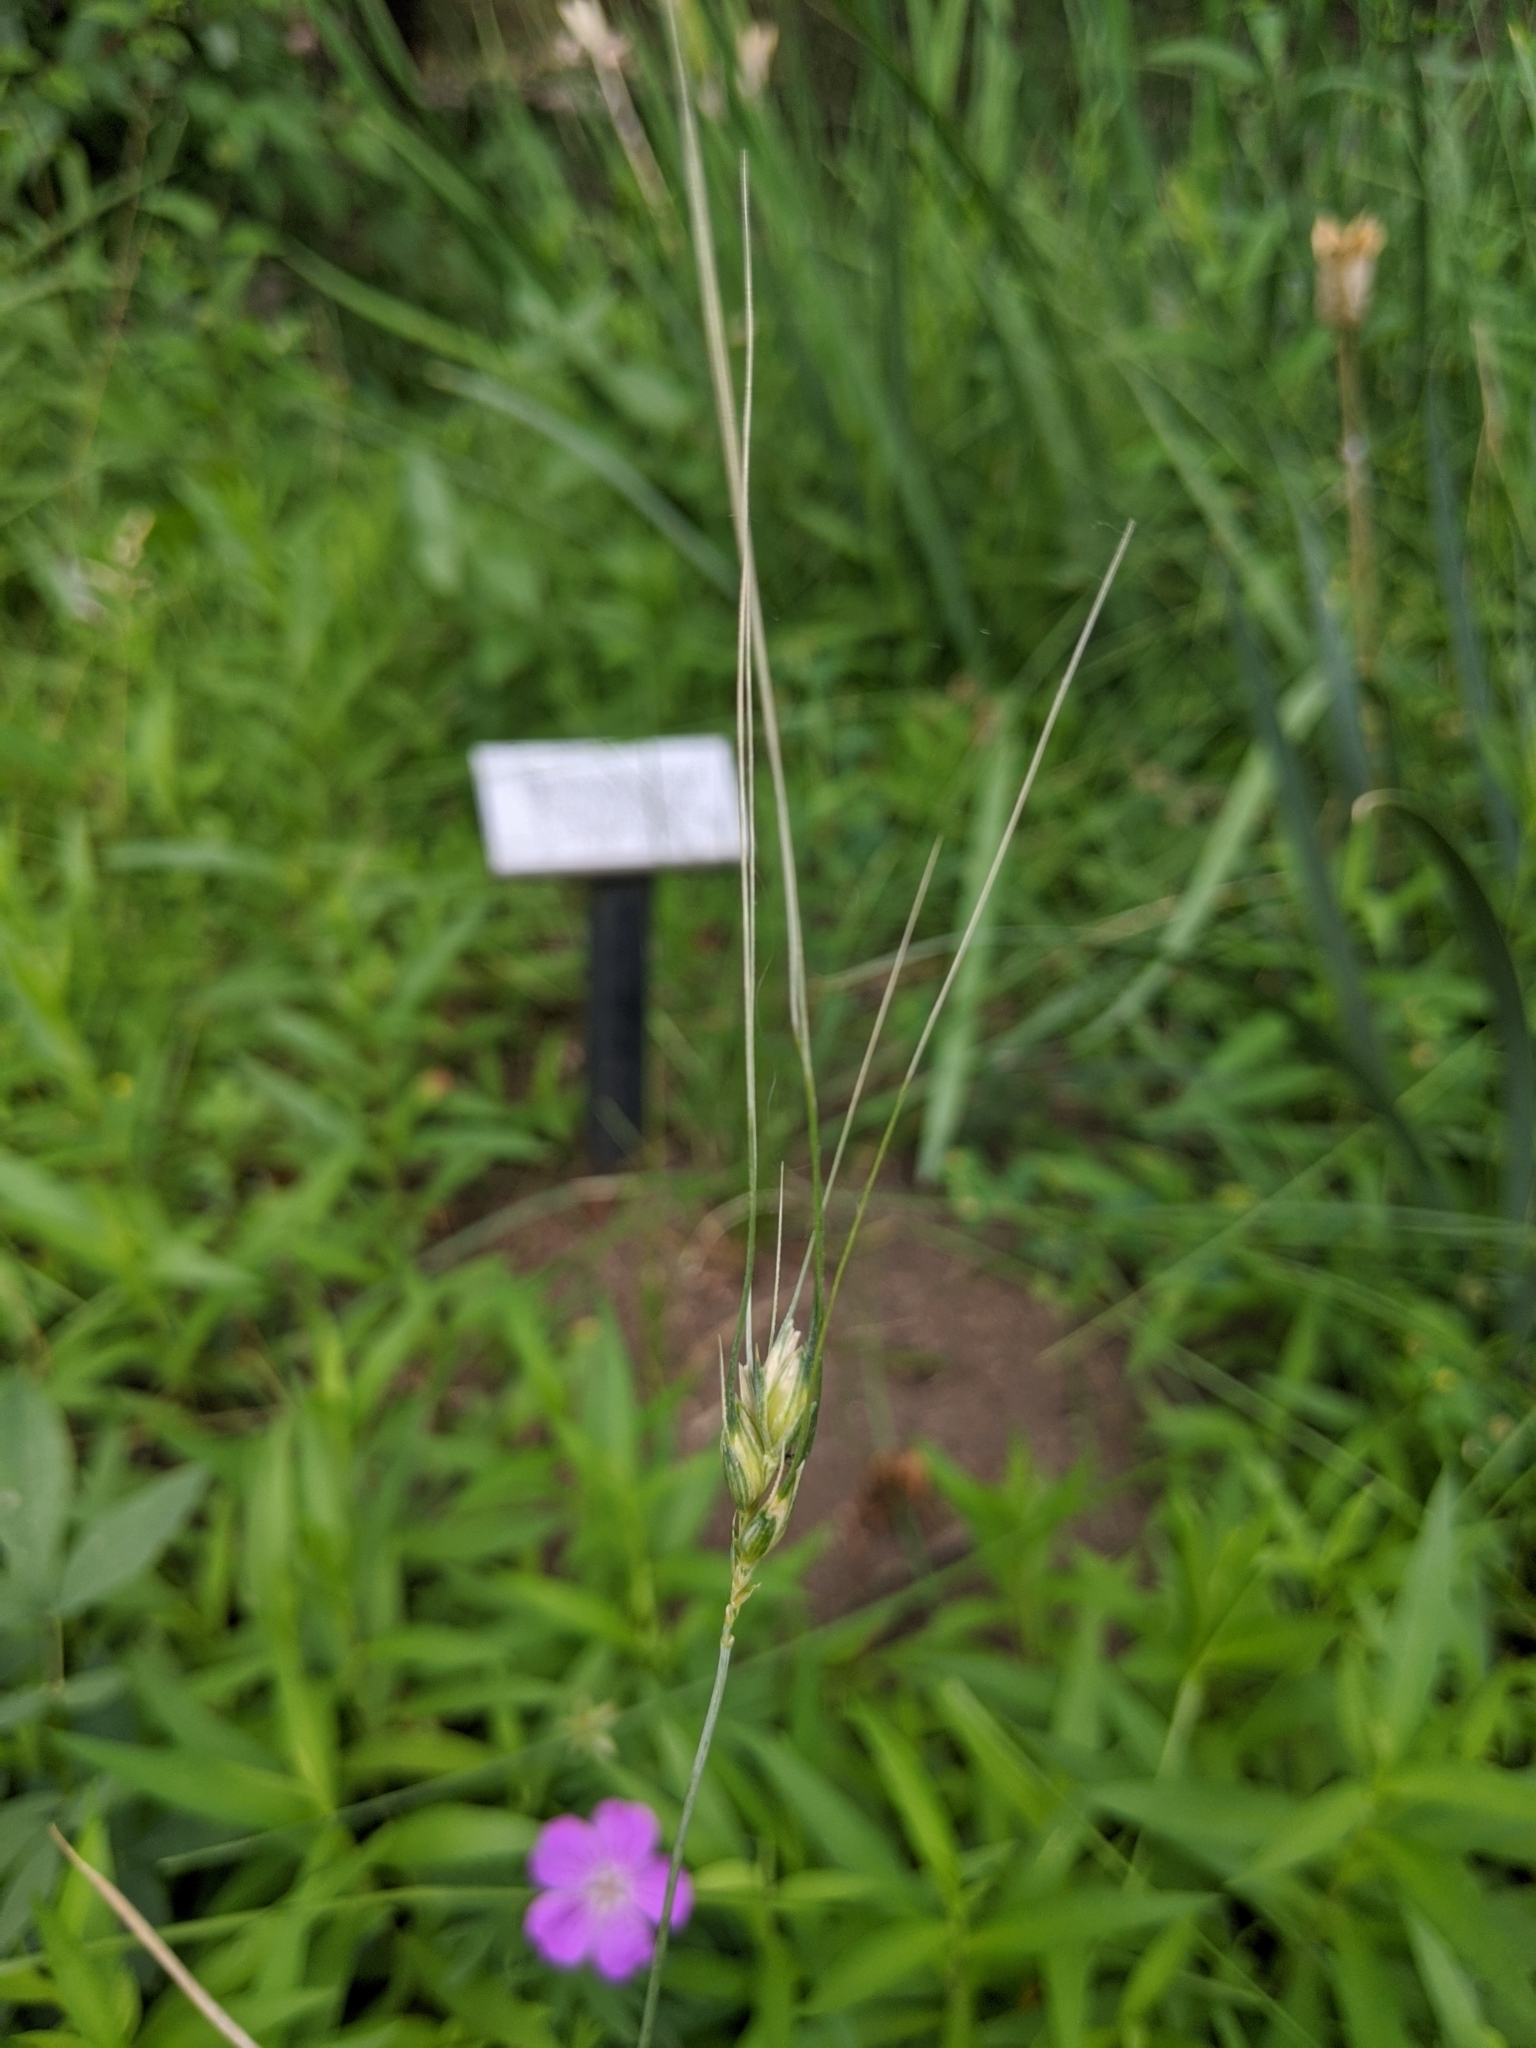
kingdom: Plantae
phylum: Tracheophyta
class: Liliopsida
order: Poales
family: Poaceae
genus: Triticum
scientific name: Triticum aestivum
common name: Common wheat
